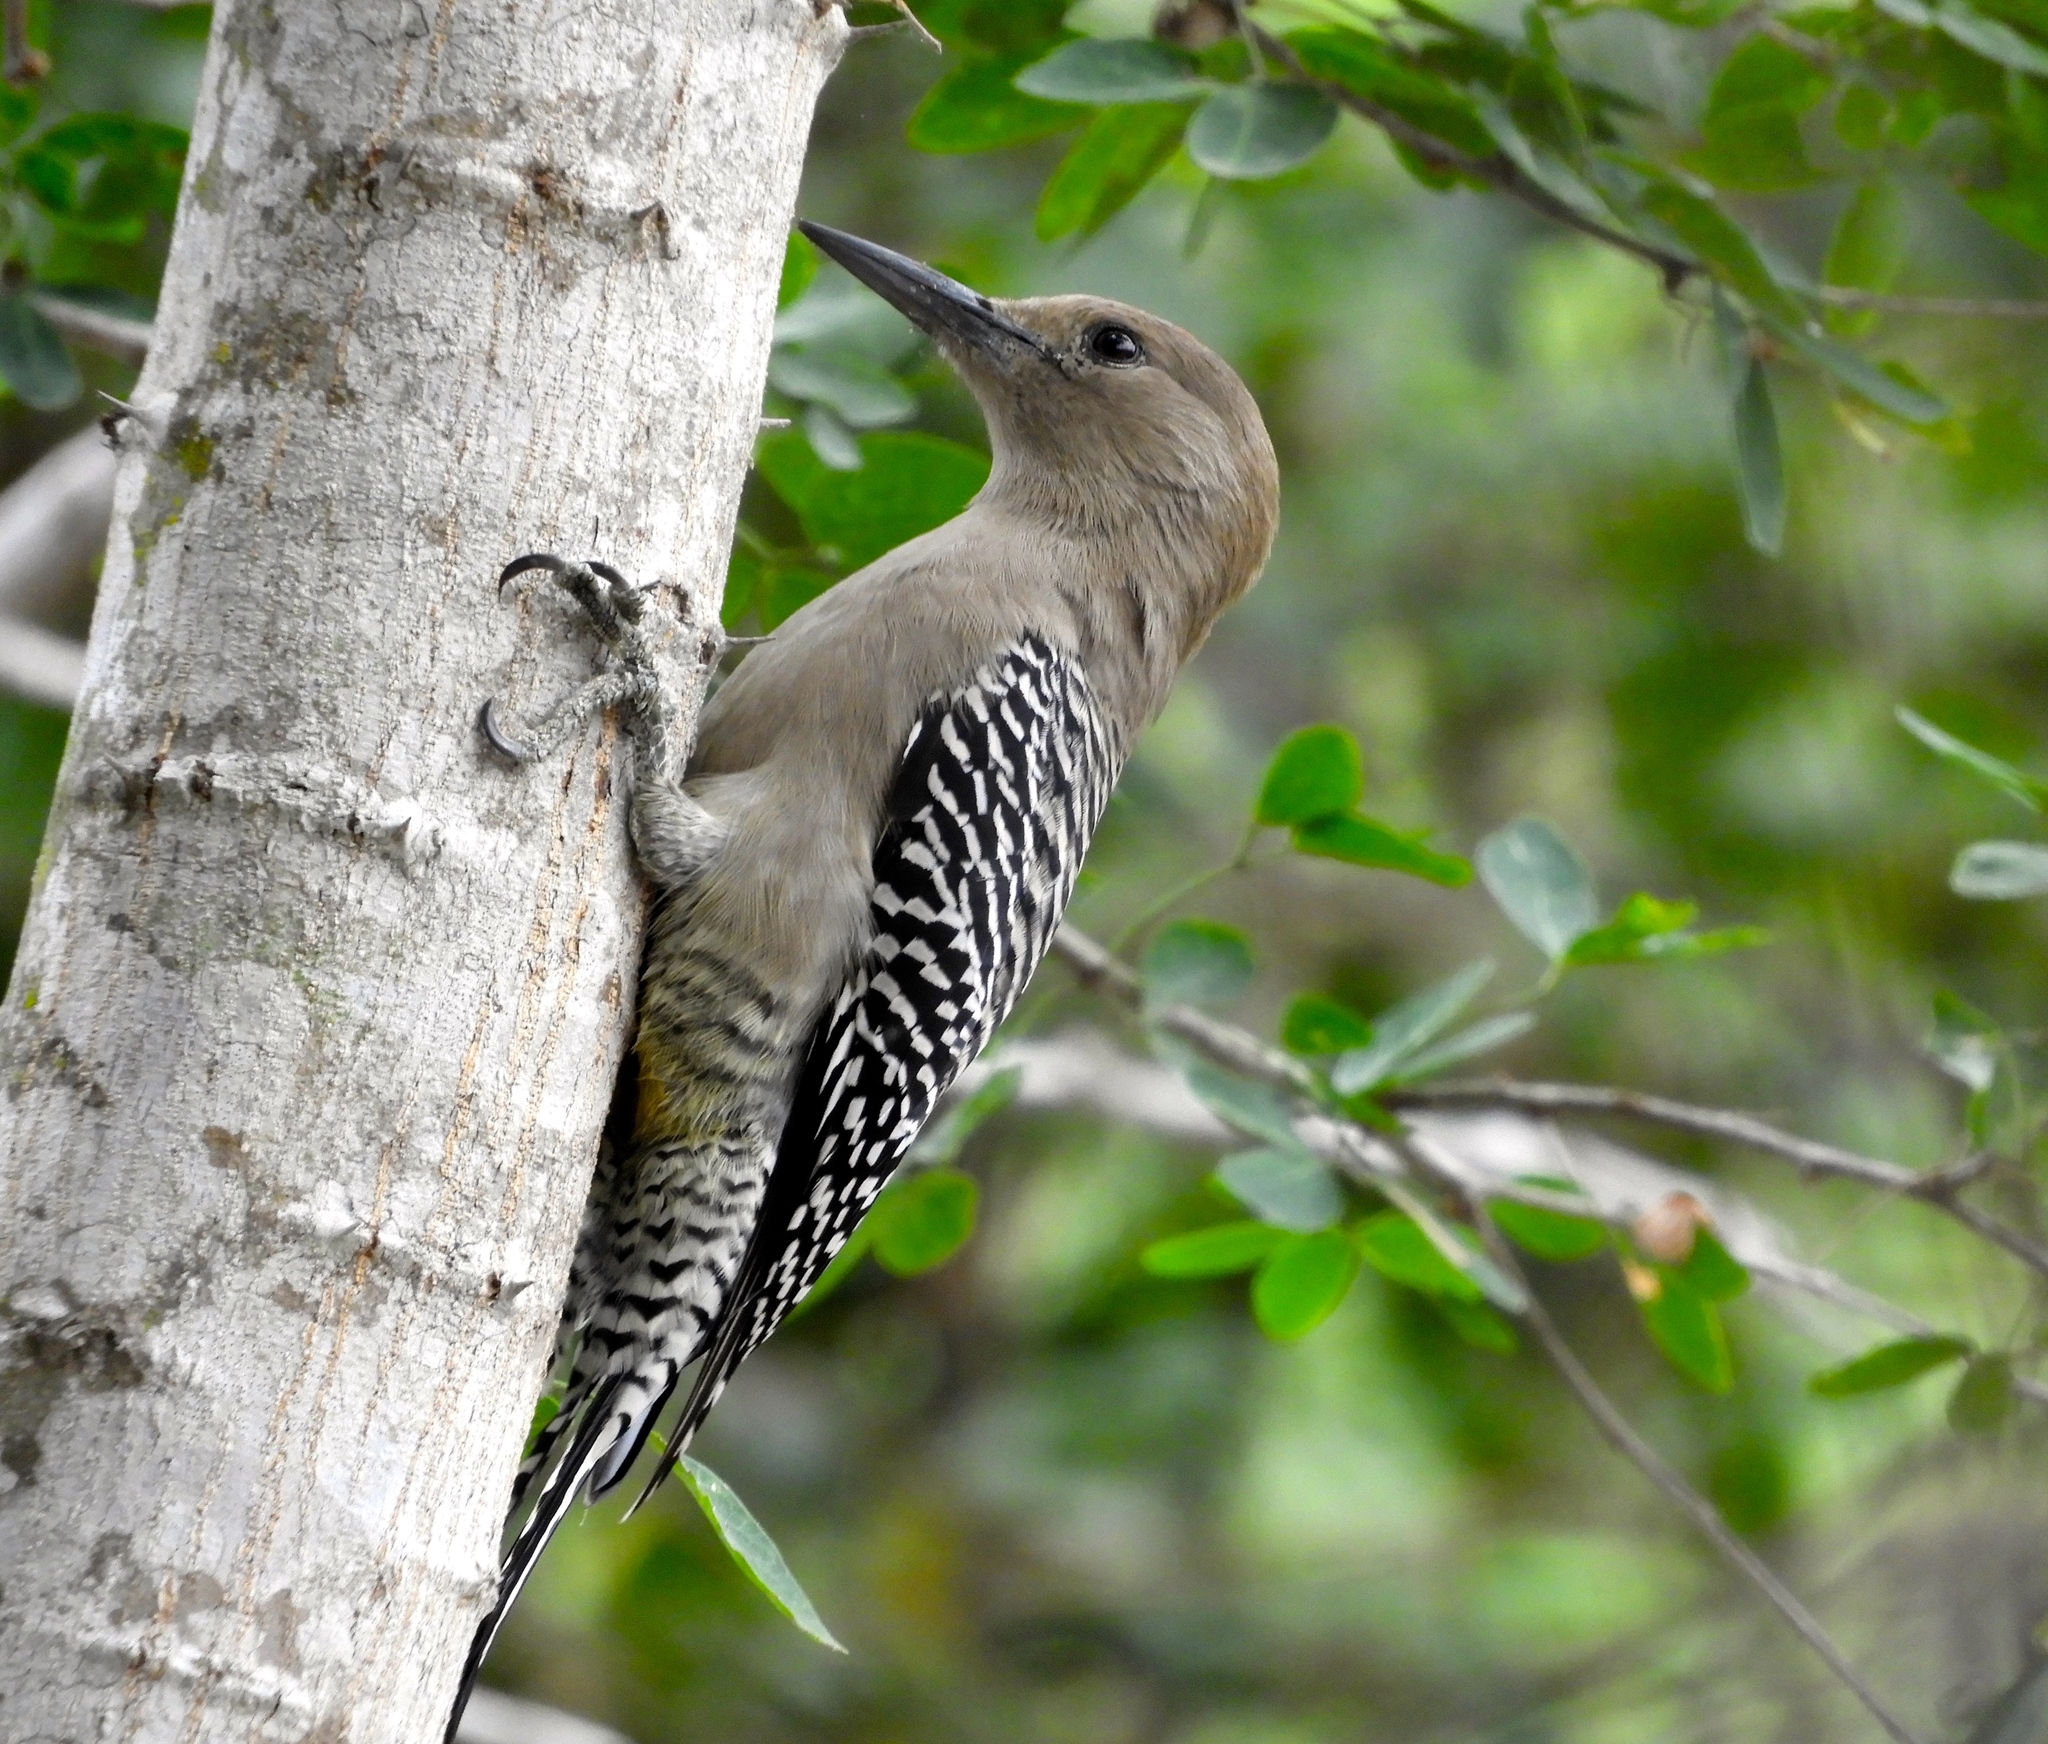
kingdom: Animalia
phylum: Chordata
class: Aves
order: Piciformes
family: Picidae
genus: Melanerpes
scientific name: Melanerpes uropygialis
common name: Gila woodpecker
